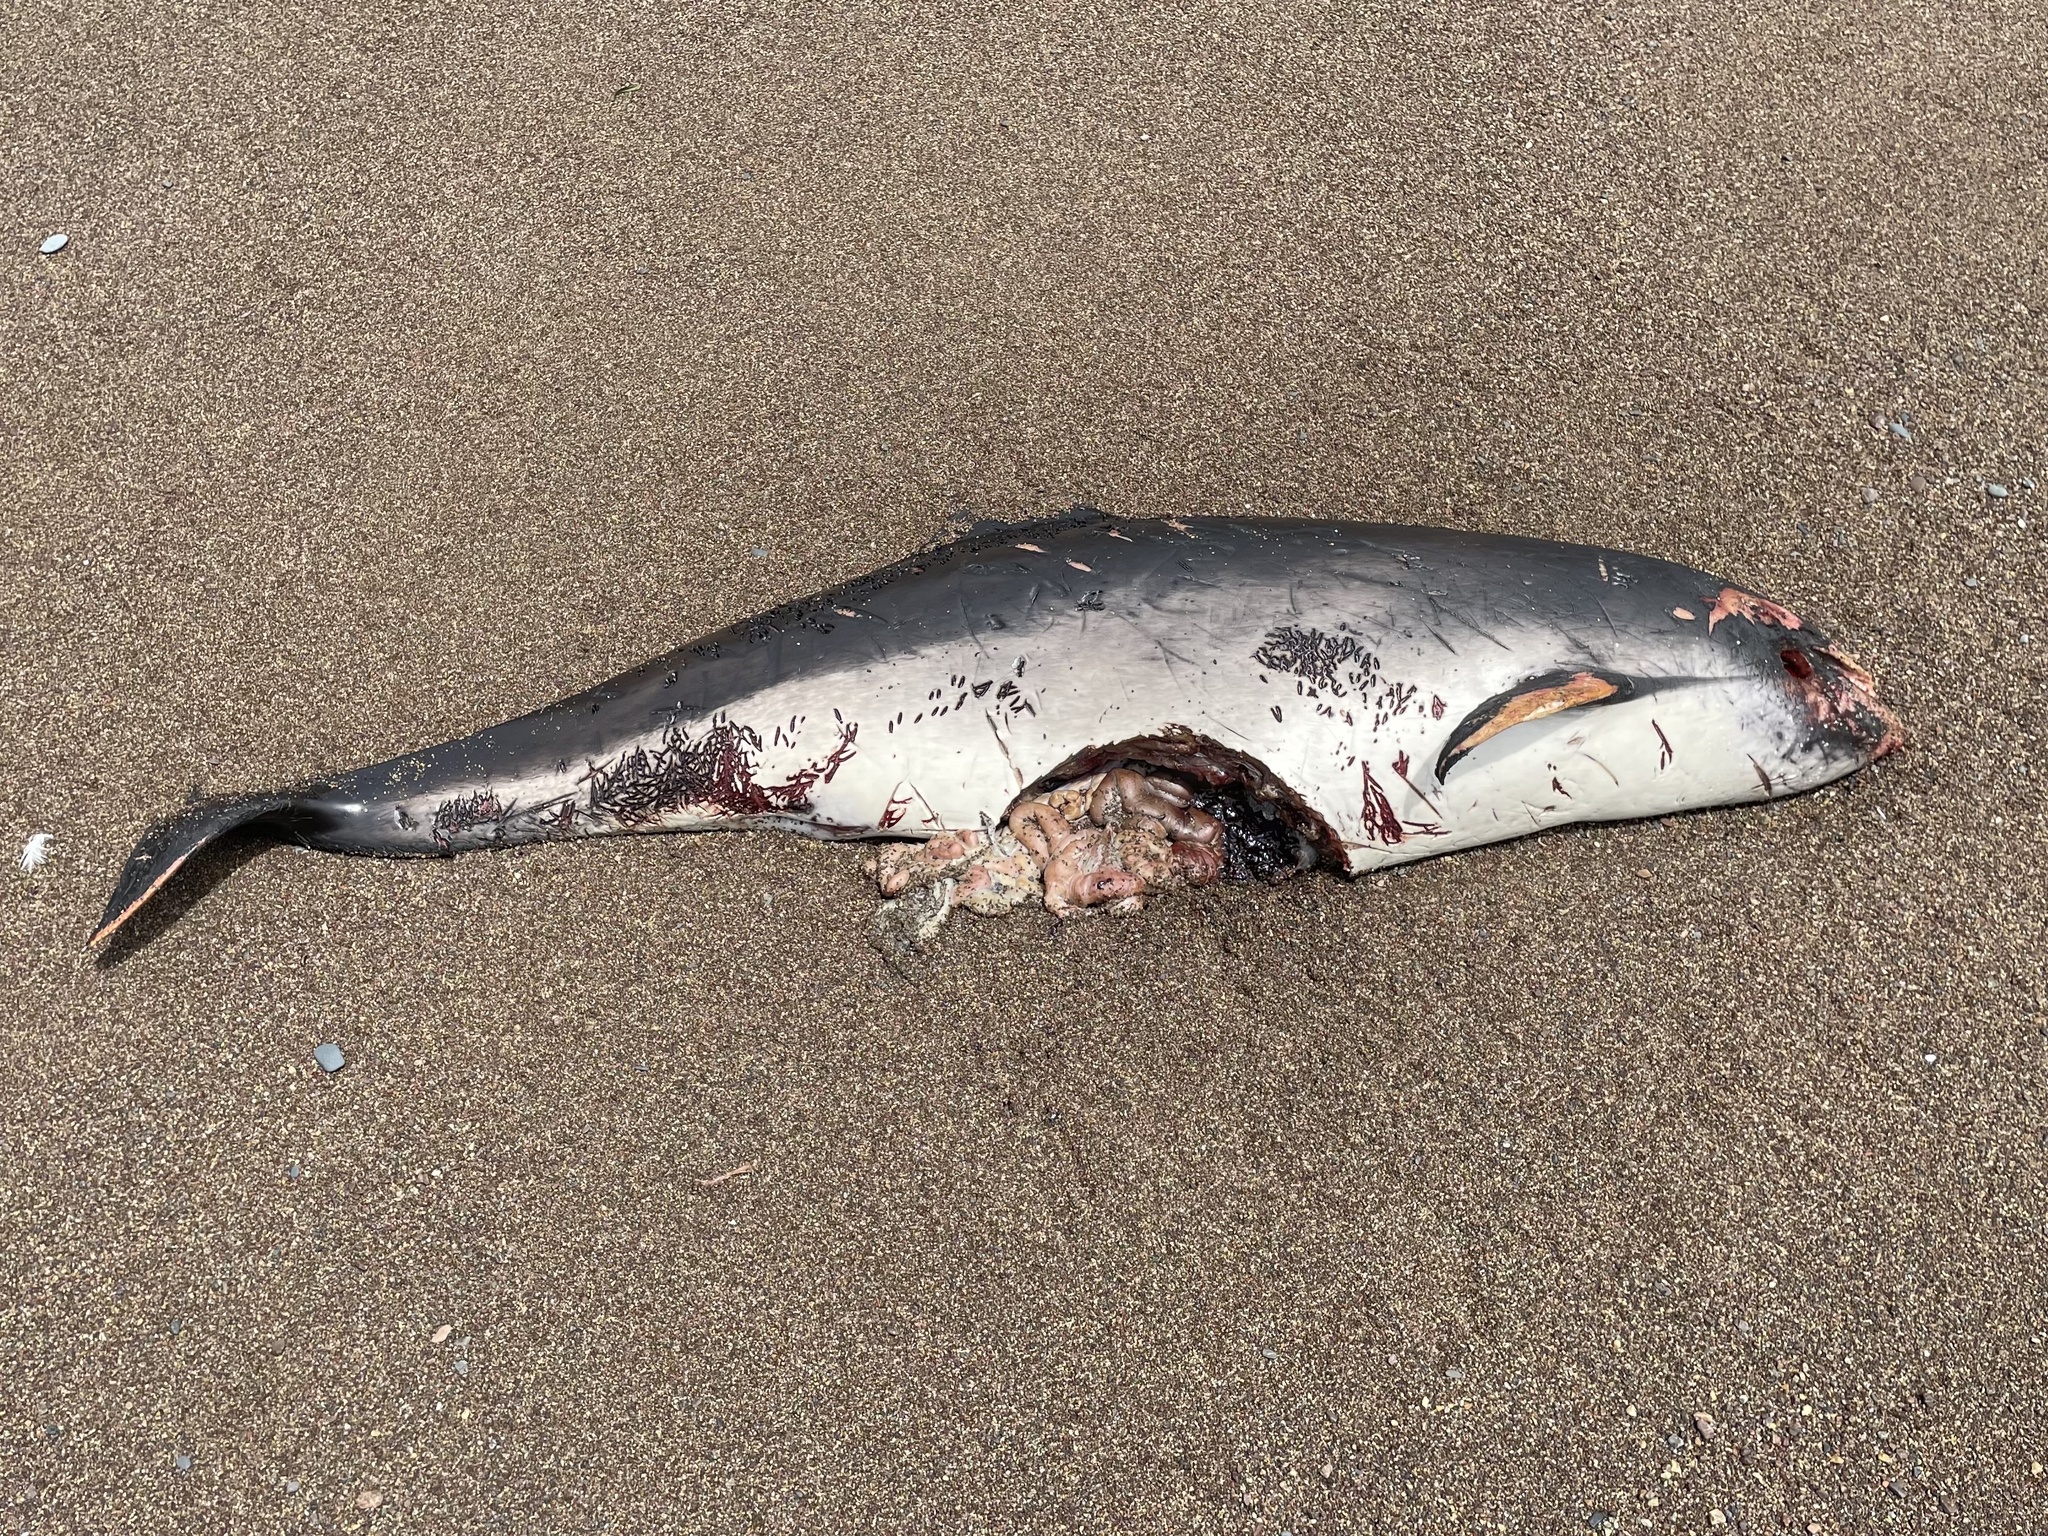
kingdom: Animalia
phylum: Chordata
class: Mammalia
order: Cetacea
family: Phocoenidae
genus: Phocoena
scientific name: Phocoena phocoena
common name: Harbor porpoise
